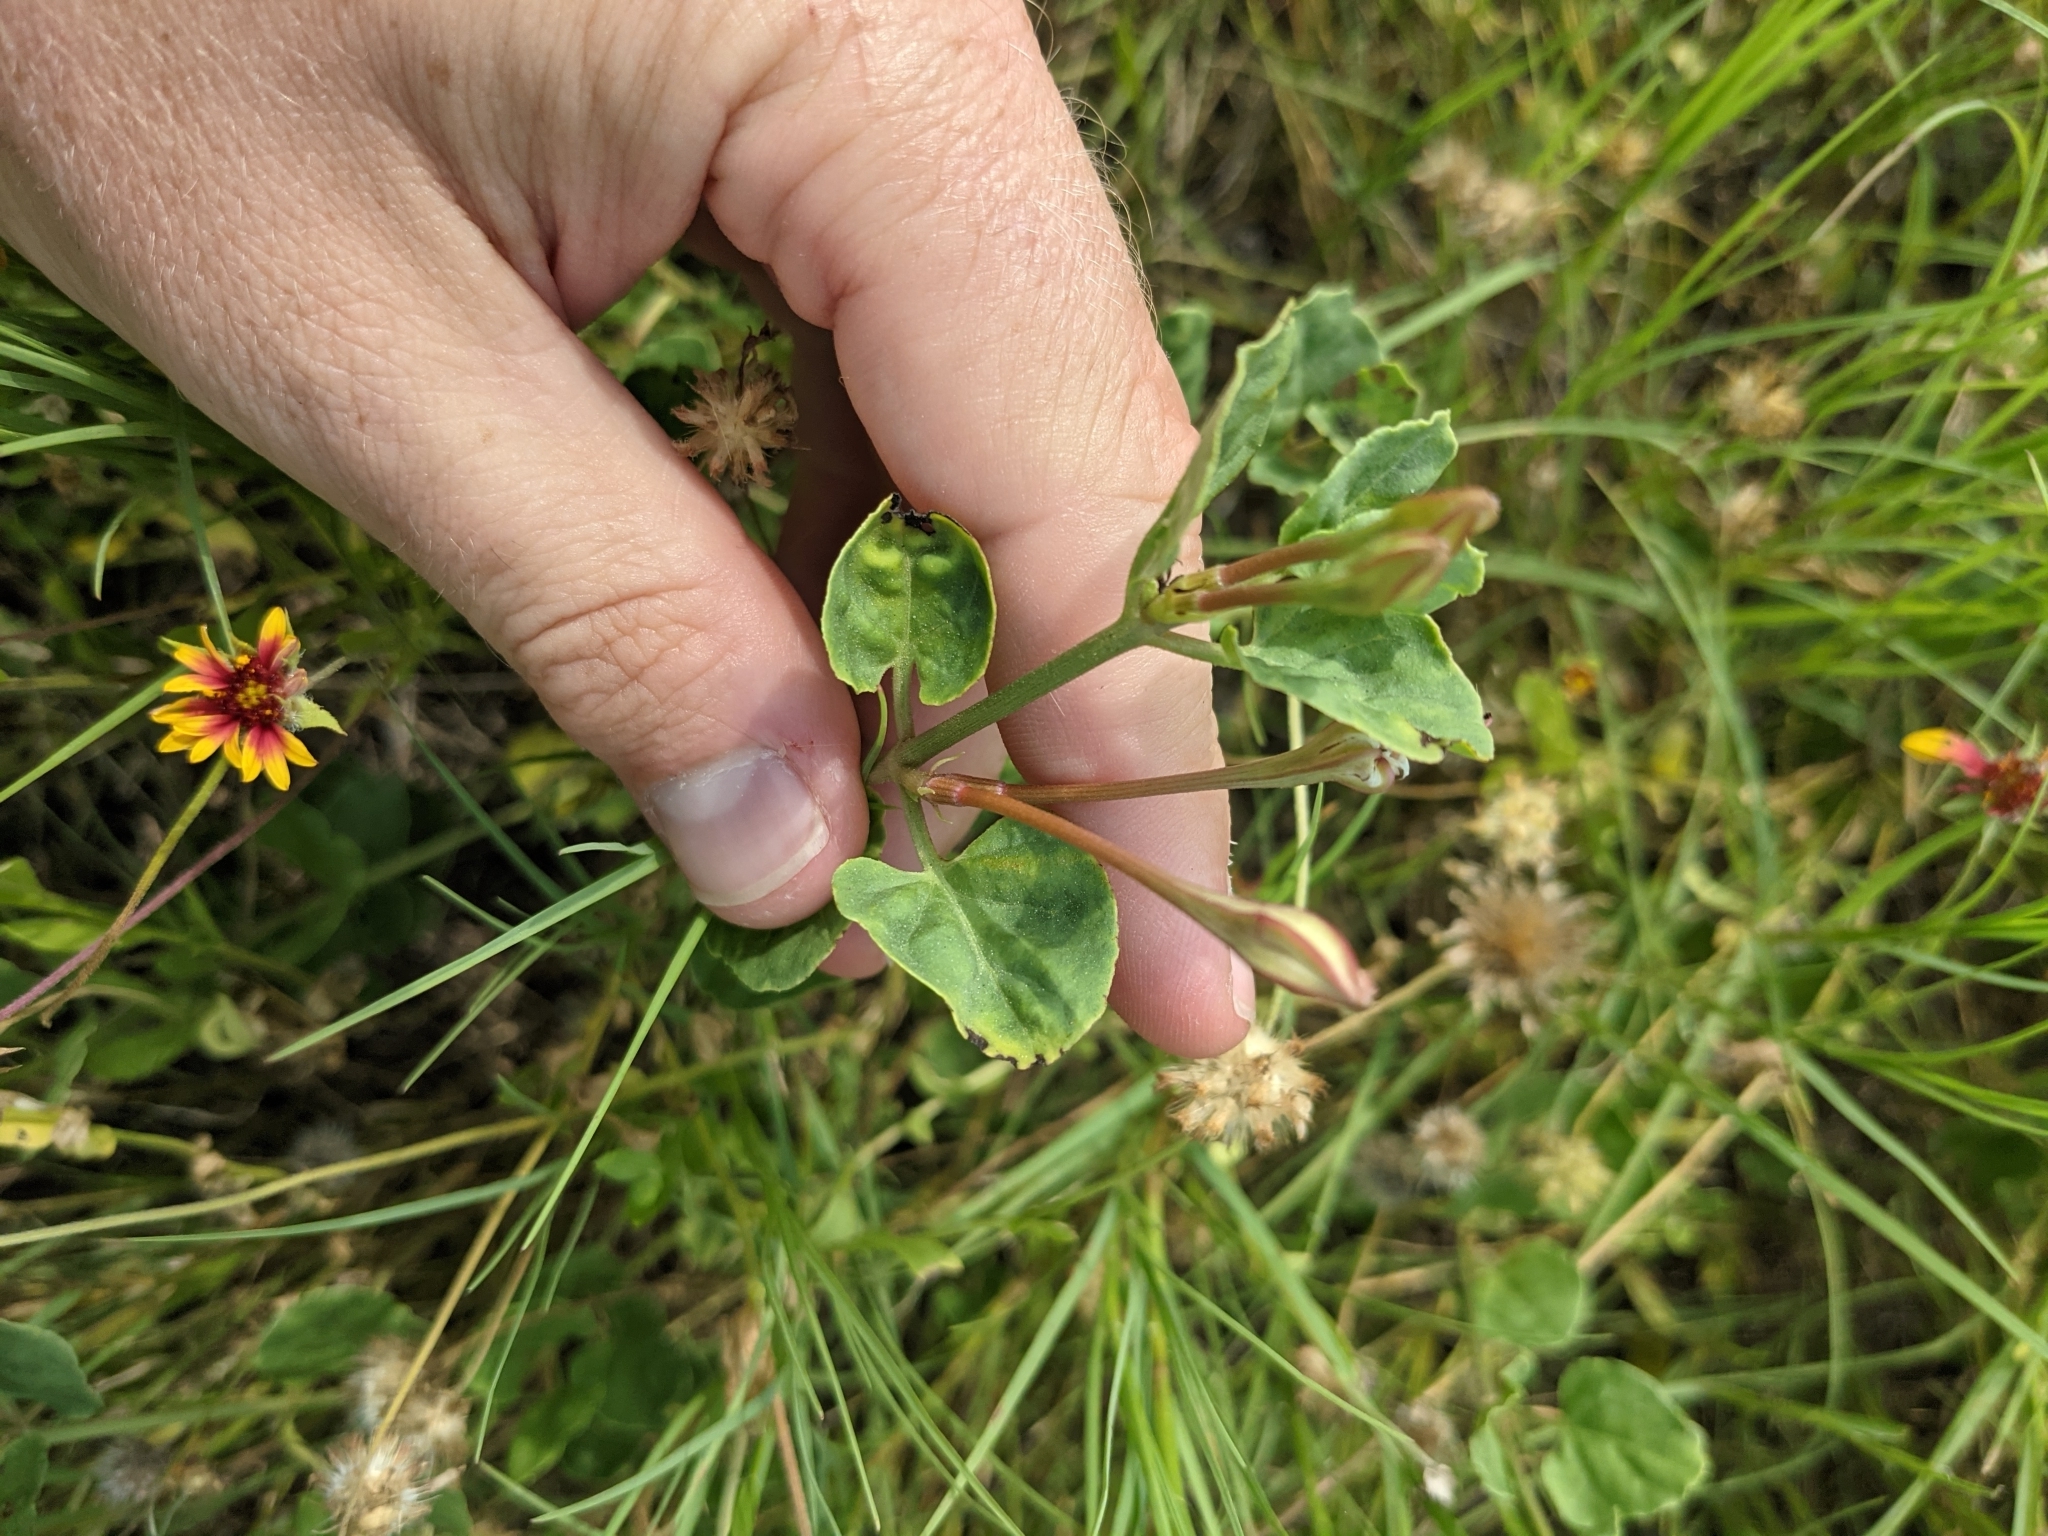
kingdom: Plantae
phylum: Tracheophyta
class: Magnoliopsida
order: Caryophyllales
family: Nyctaginaceae
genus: Acleisanthes
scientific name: Acleisanthes obtusa
